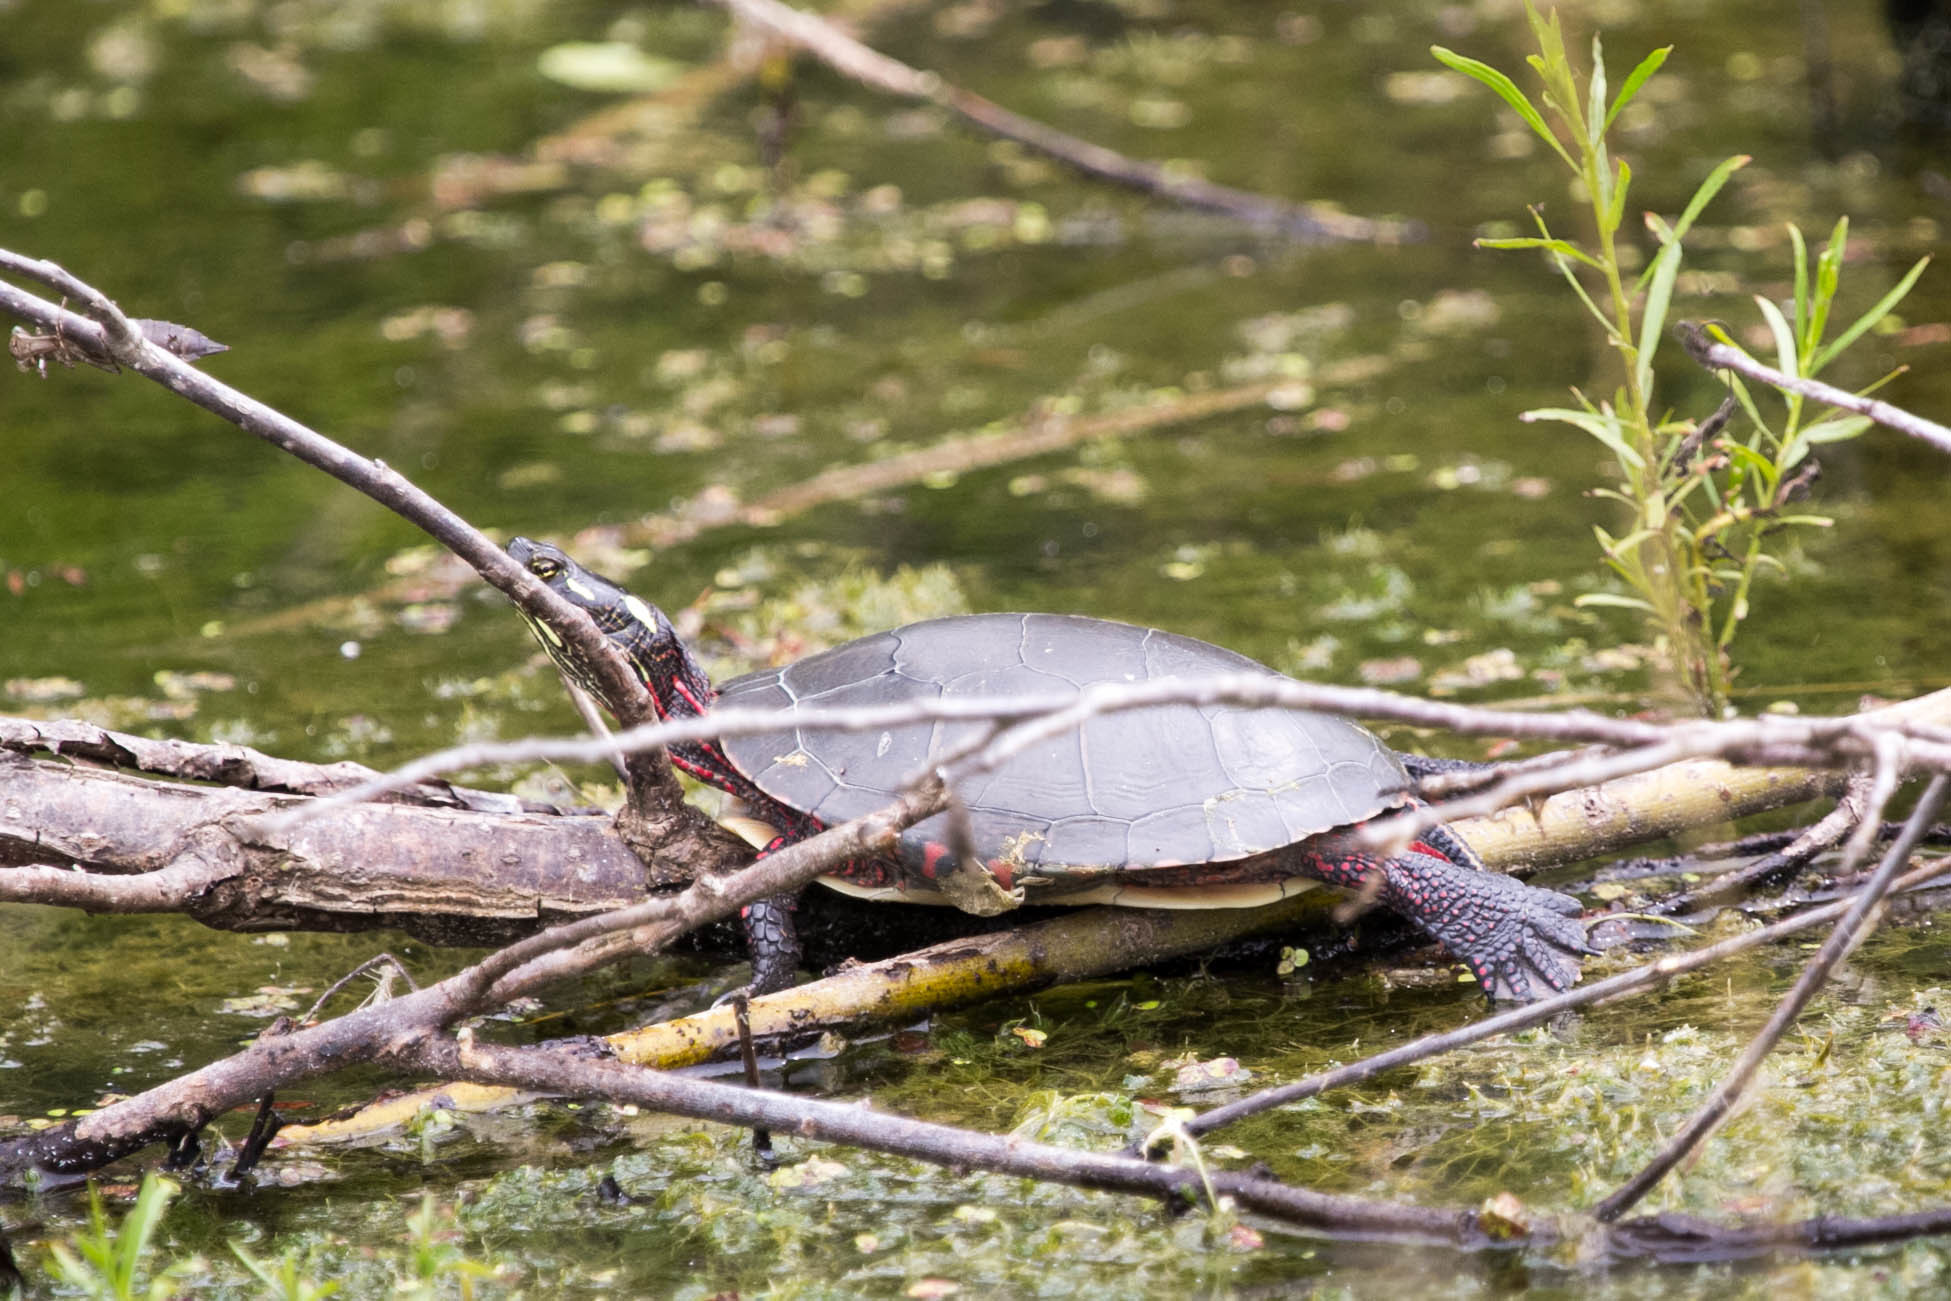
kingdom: Animalia
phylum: Chordata
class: Testudines
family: Emydidae
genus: Chrysemys
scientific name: Chrysemys picta
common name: Painted turtle
